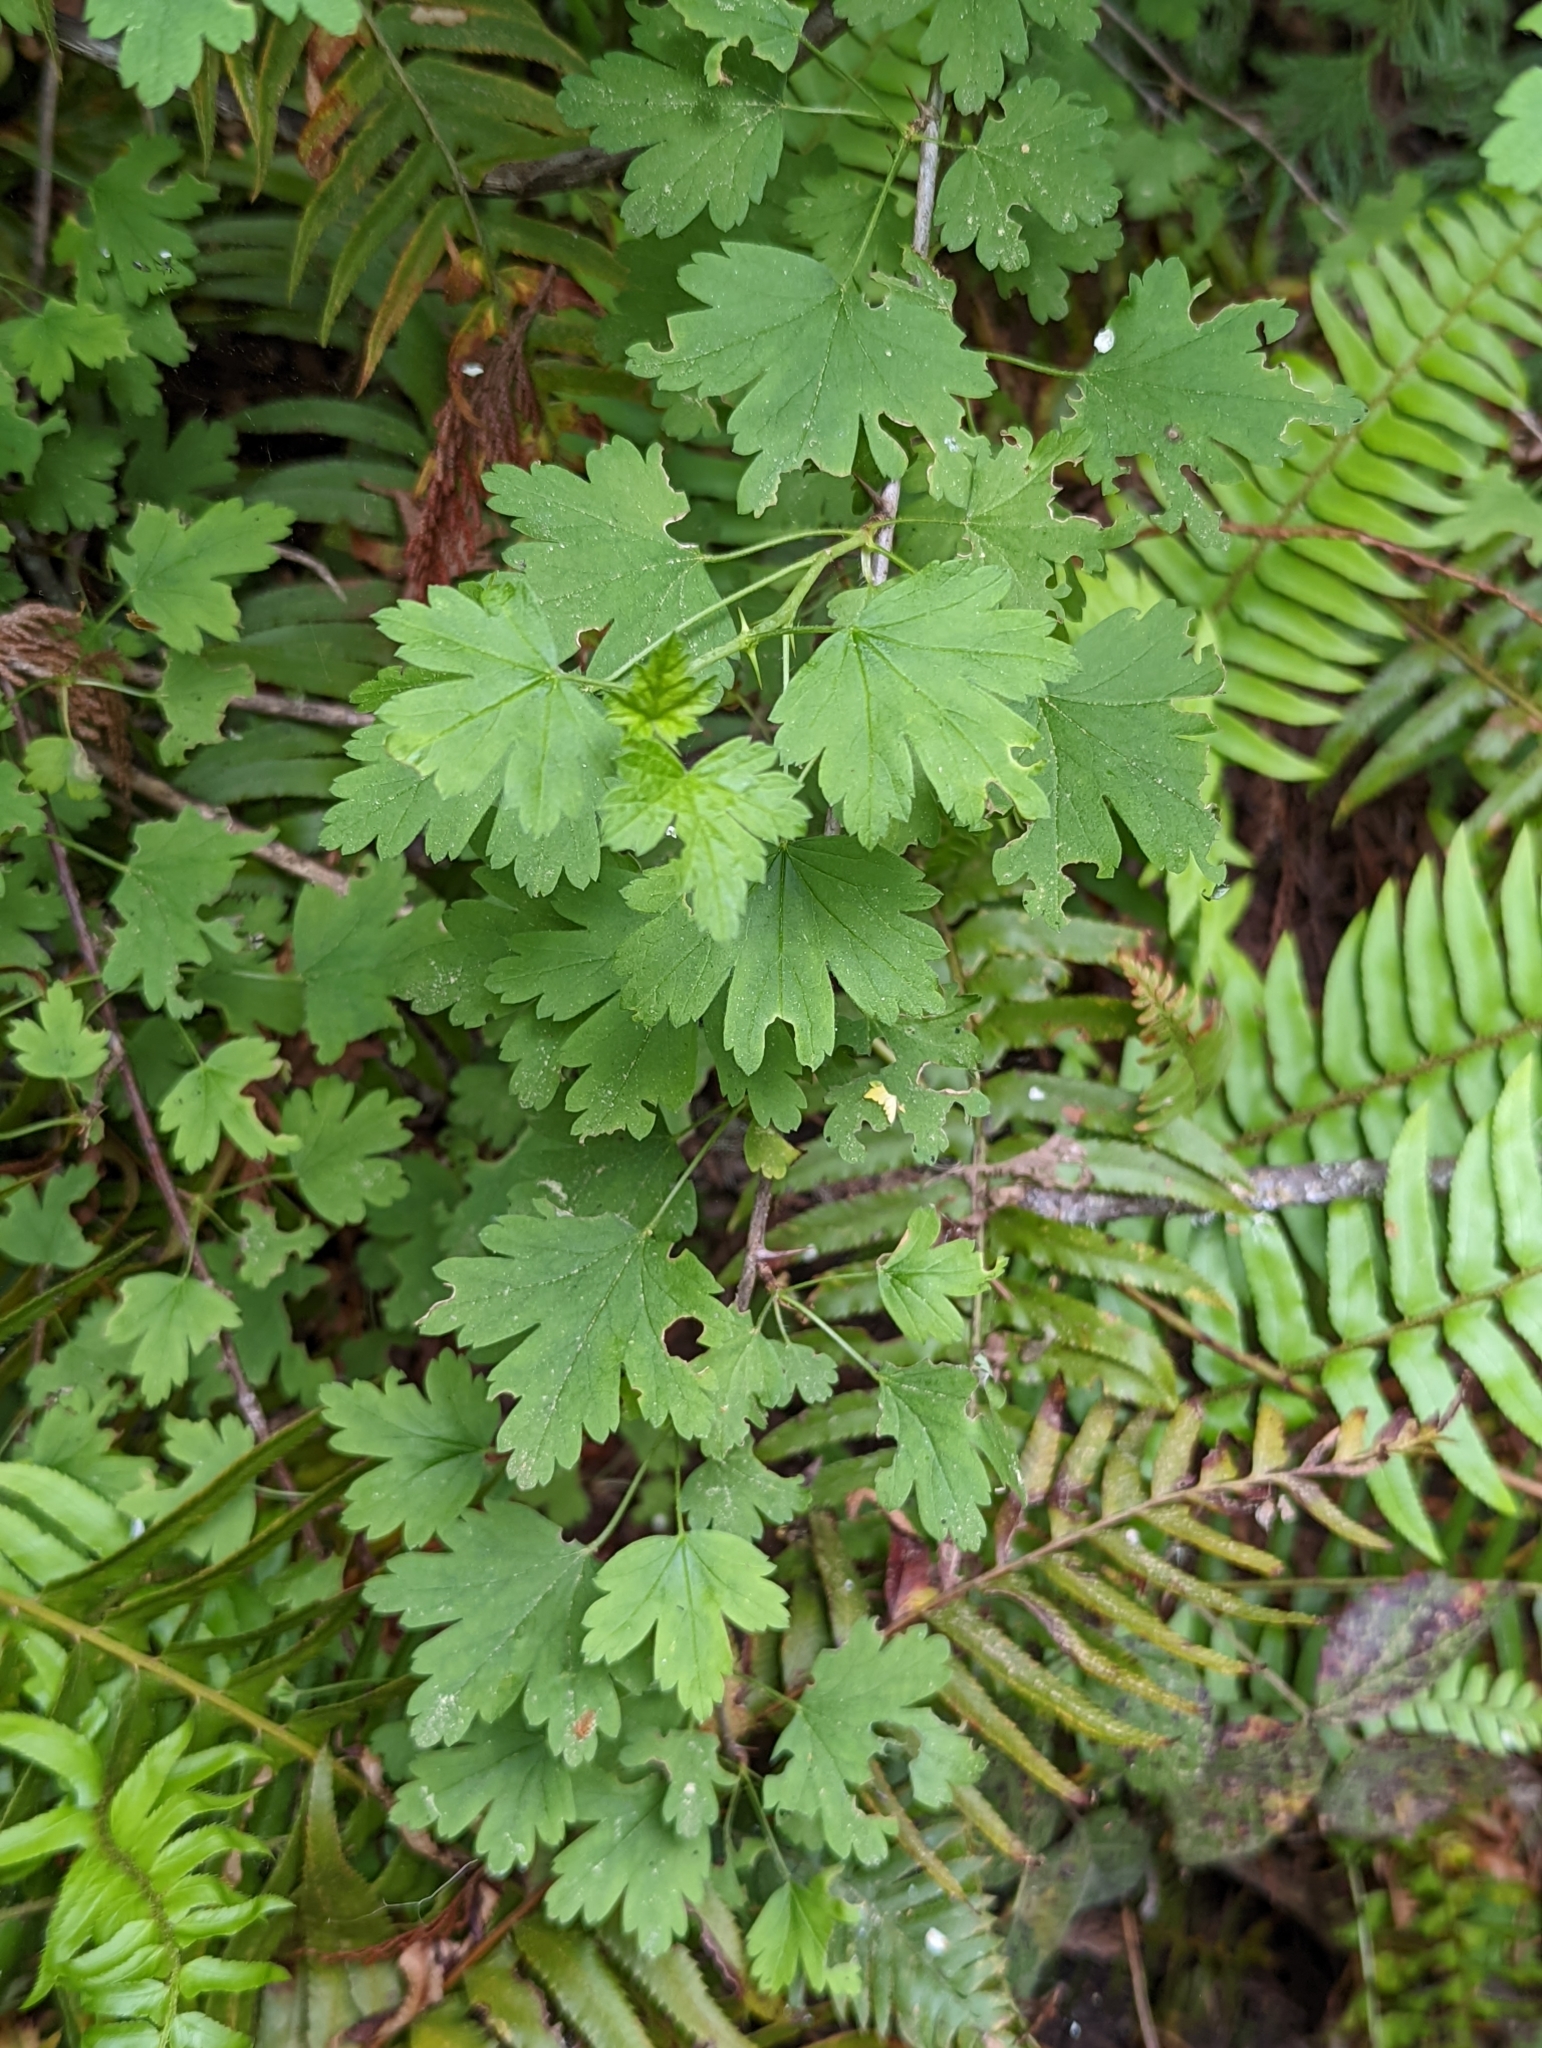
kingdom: Plantae
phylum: Tracheophyta
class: Magnoliopsida
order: Saxifragales
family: Grossulariaceae
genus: Ribes
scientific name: Ribes divaricatum
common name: Wild black gooseberry
